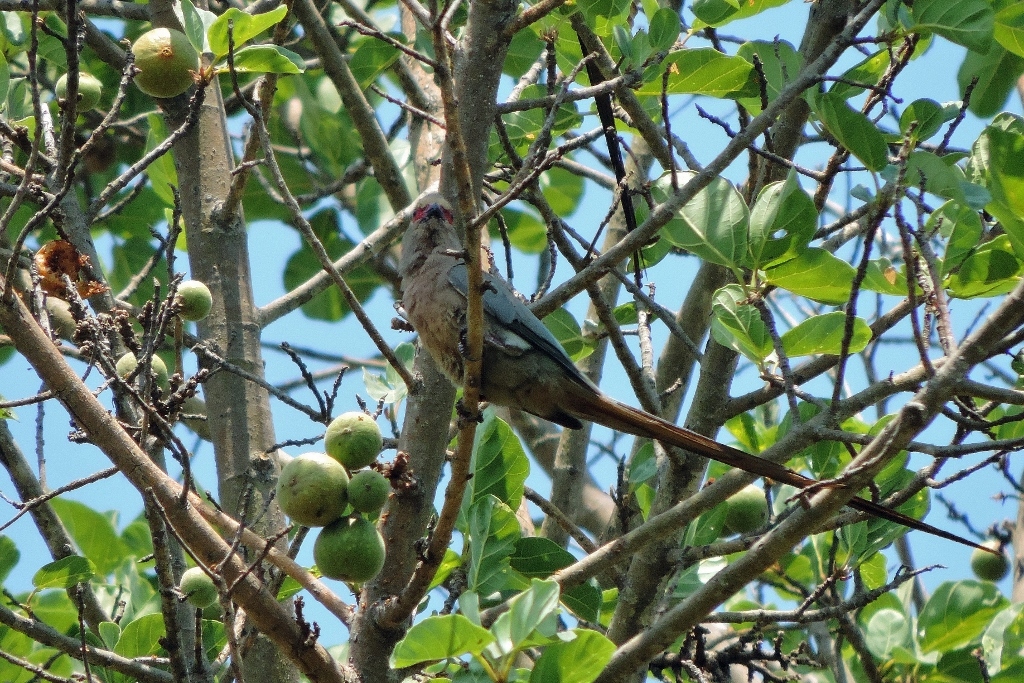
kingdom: Animalia
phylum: Chordata
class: Aves
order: Coliiformes
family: Coliidae
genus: Urocolius
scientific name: Urocolius indicus
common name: Red-faced mousebird
